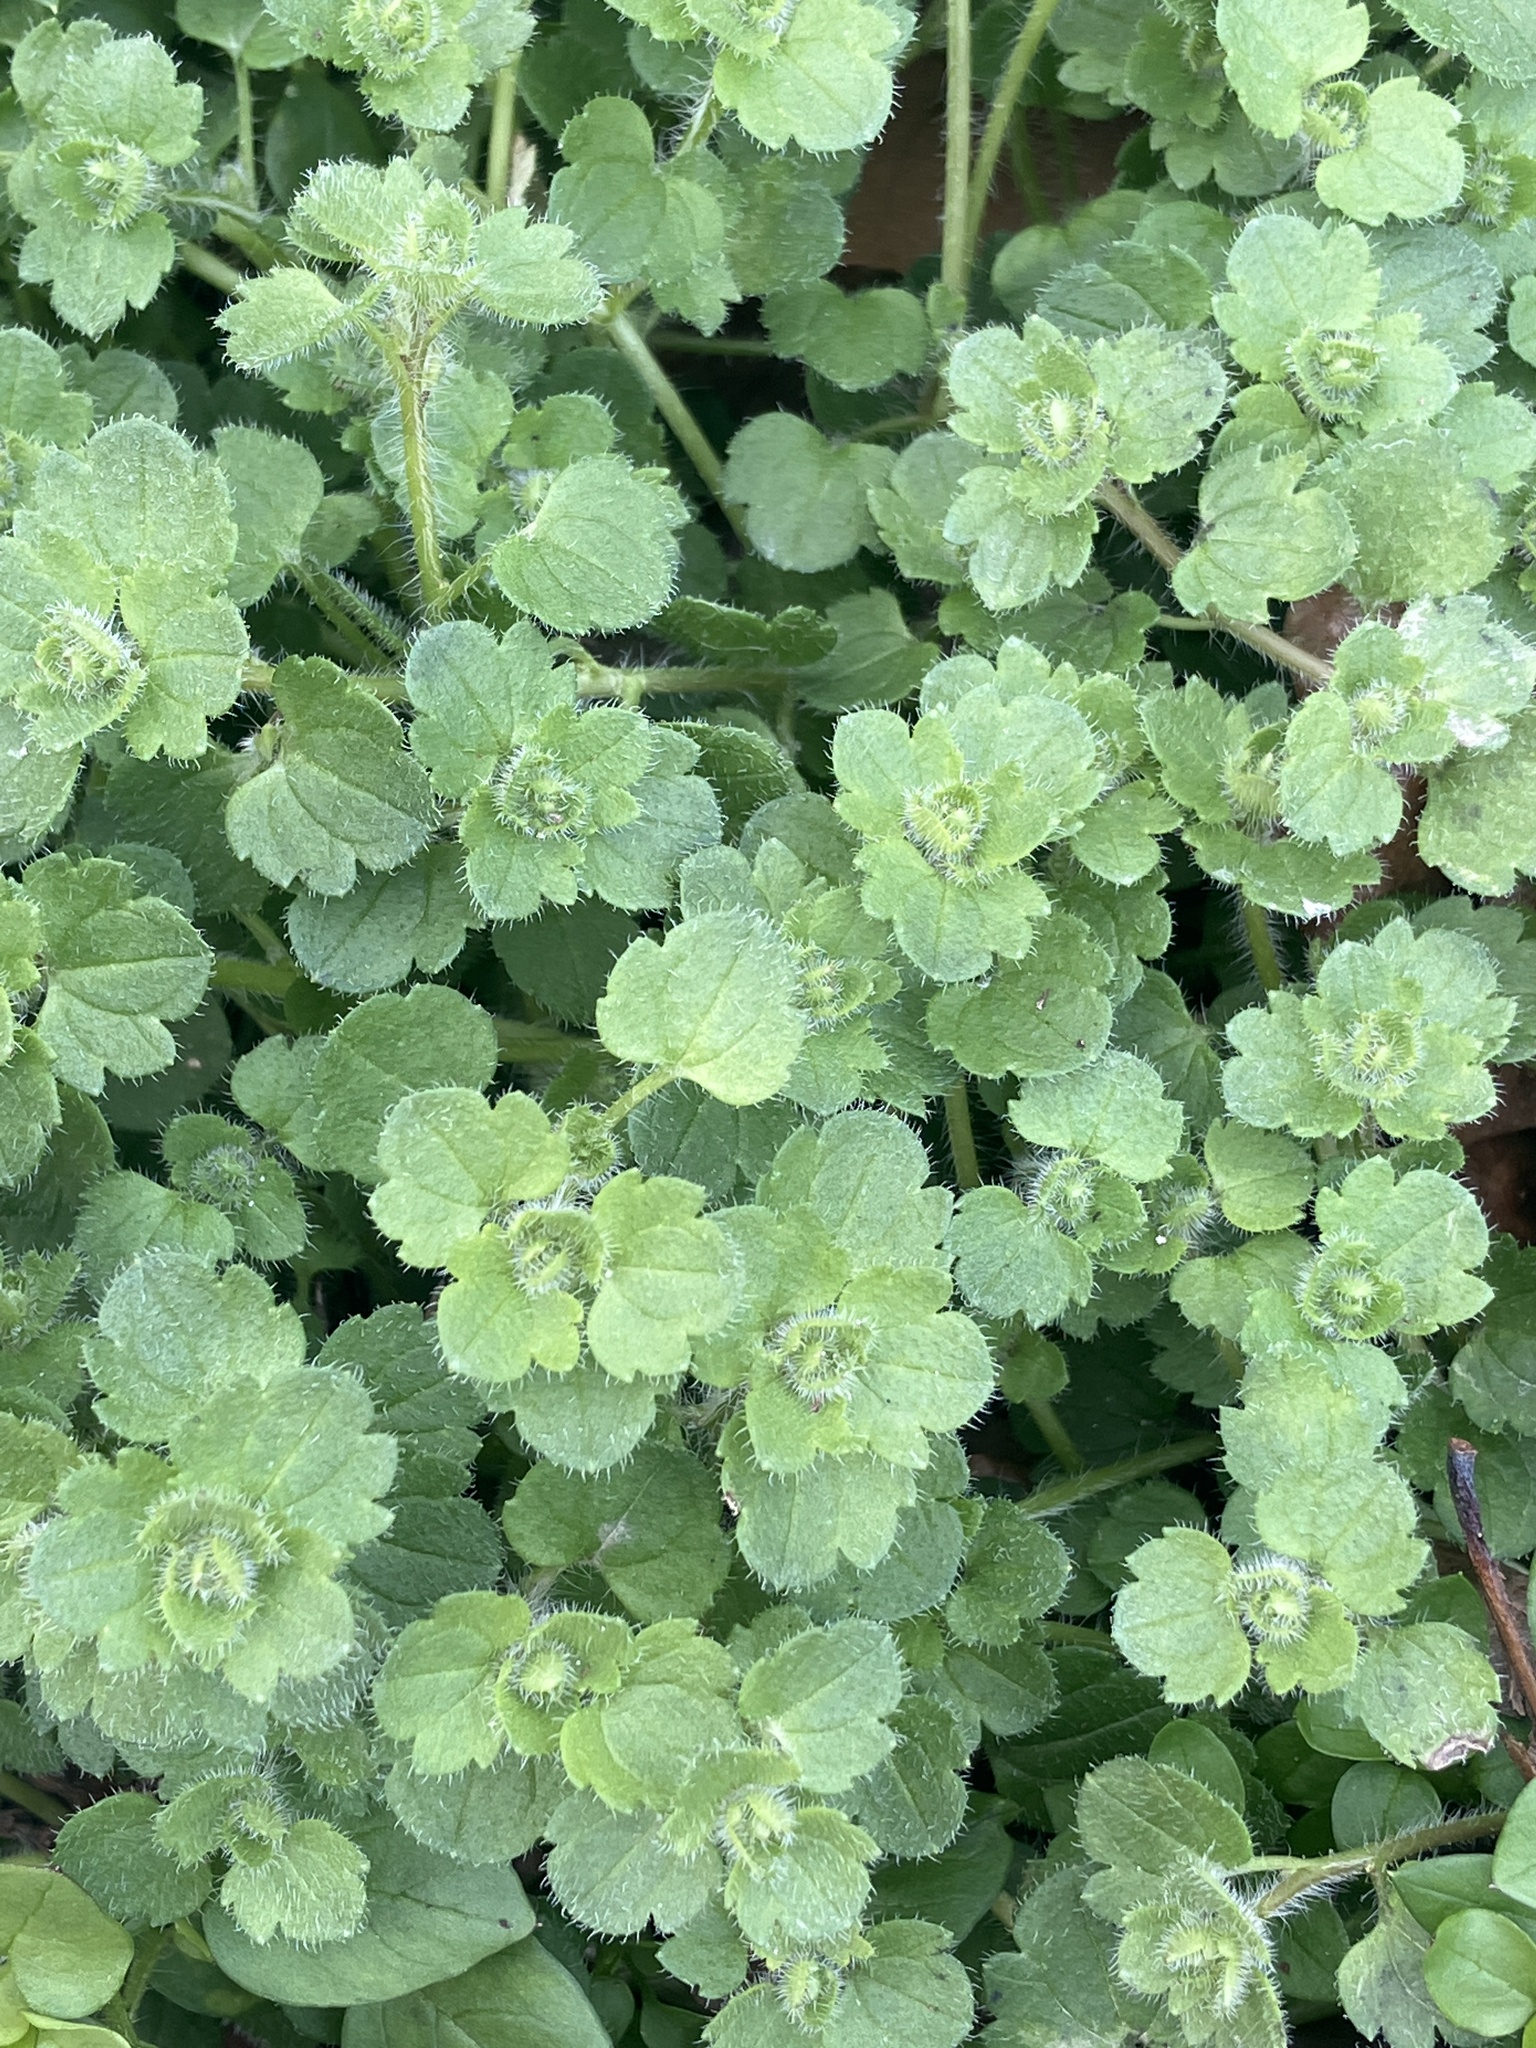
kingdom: Plantae
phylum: Tracheophyta
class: Magnoliopsida
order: Lamiales
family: Plantaginaceae
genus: Veronica
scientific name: Veronica
